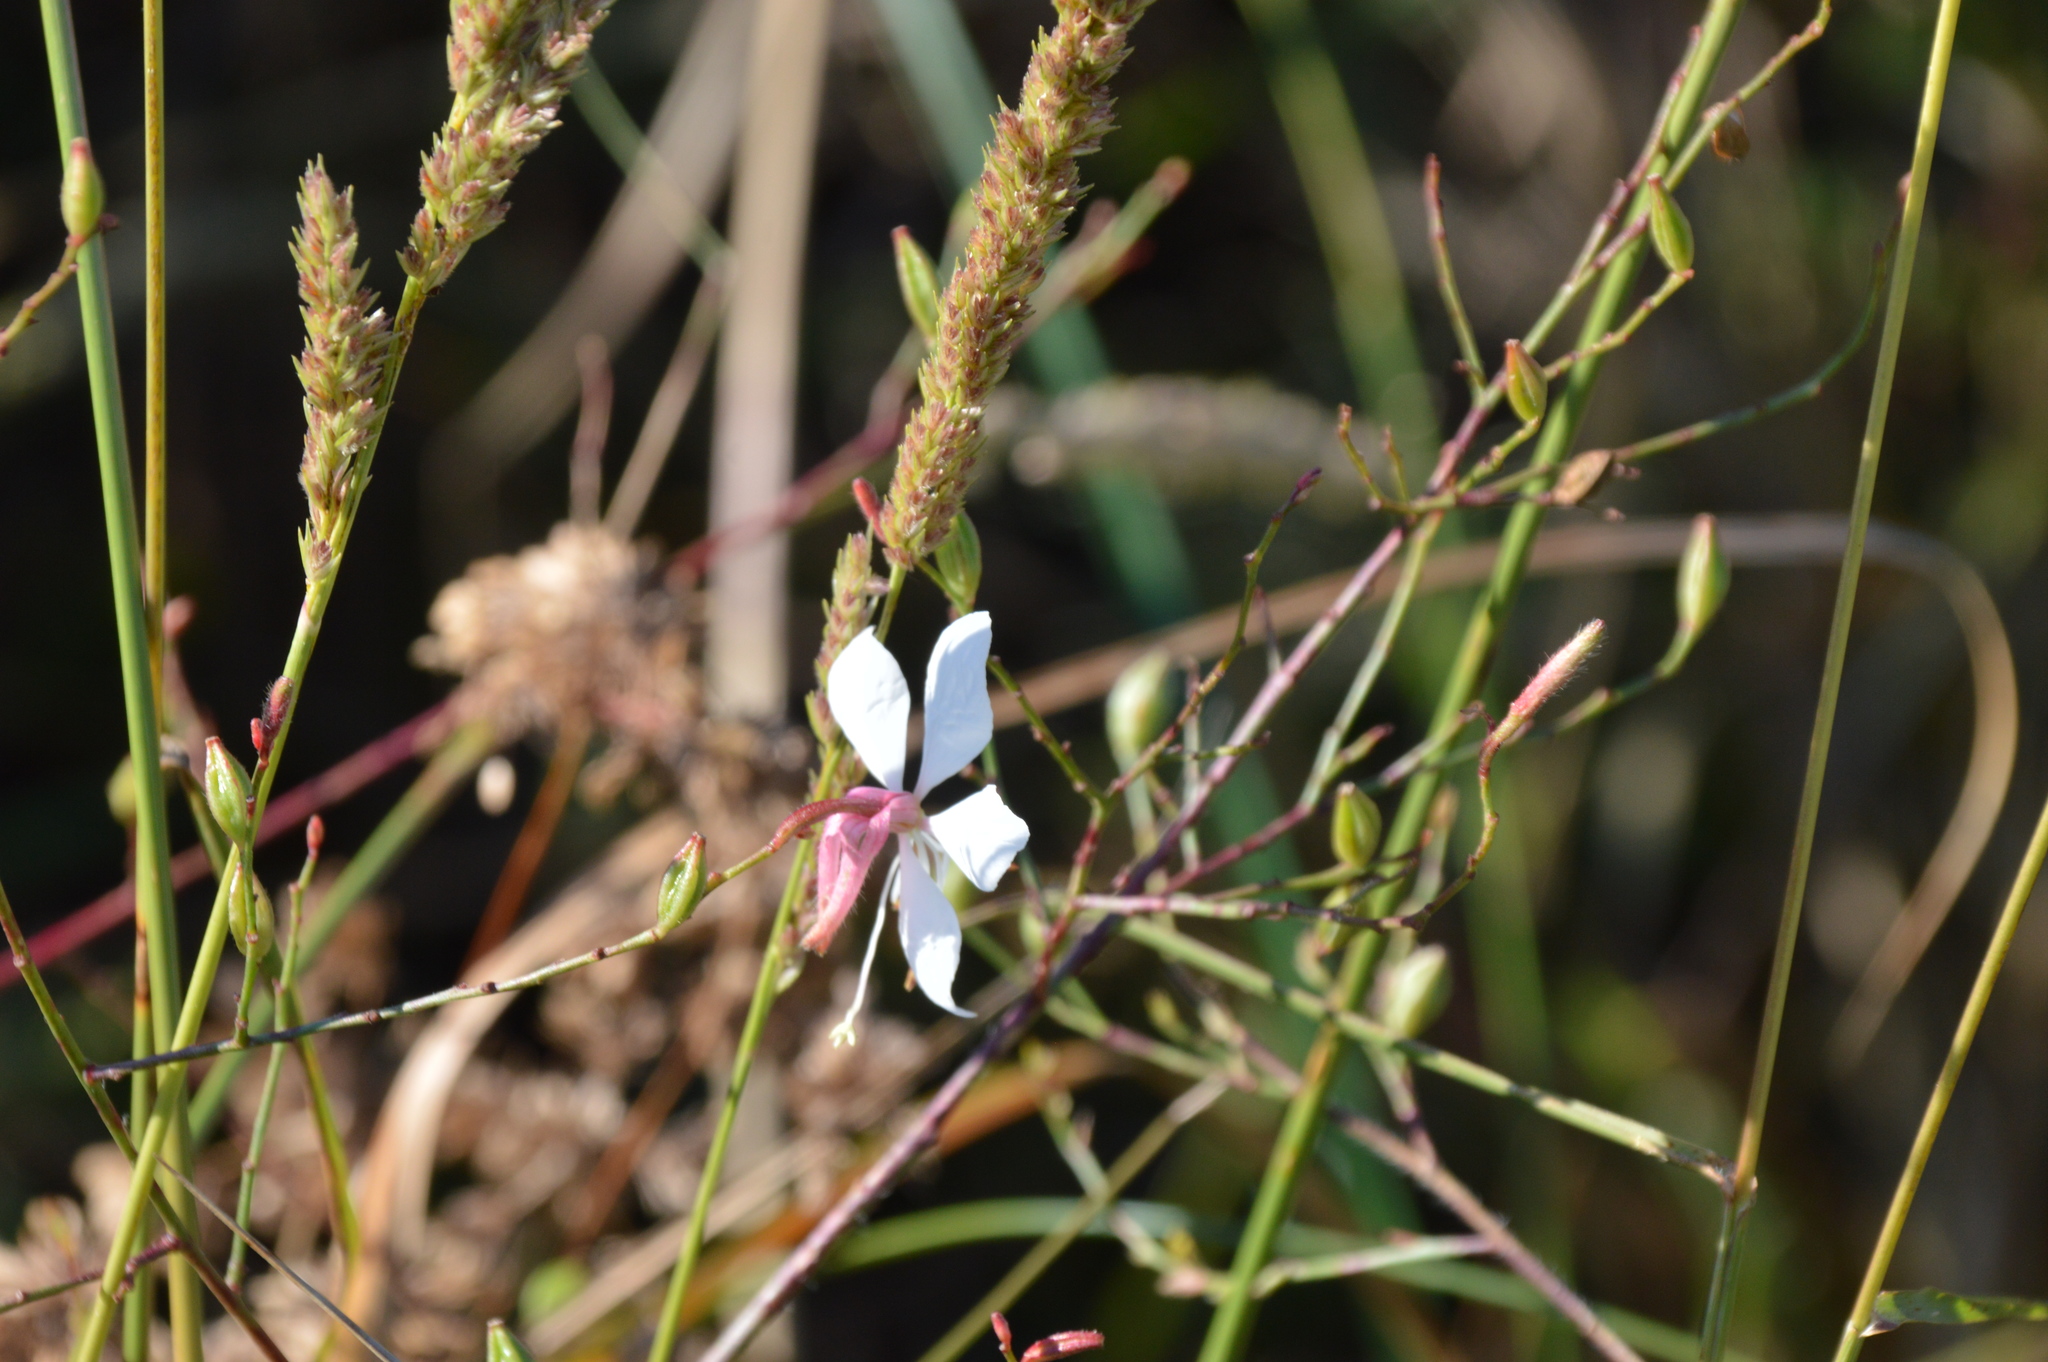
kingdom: Plantae
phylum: Tracheophyta
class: Magnoliopsida
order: Myrtales
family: Onagraceae
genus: Oenothera
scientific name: Oenothera lindheimeri
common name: Lindheimer's beeblossom
